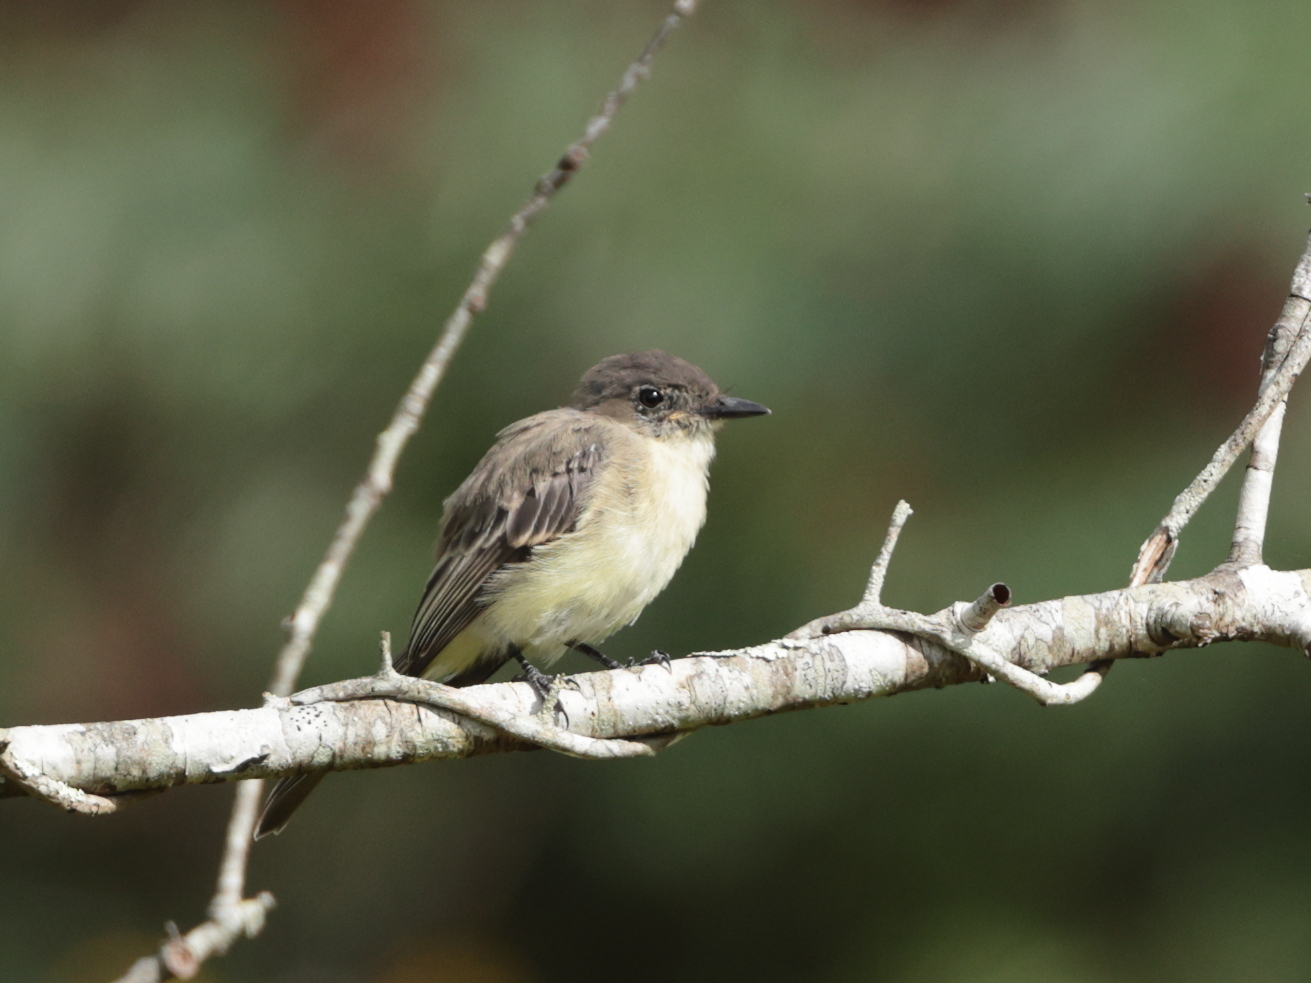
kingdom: Animalia
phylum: Chordata
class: Aves
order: Passeriformes
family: Tyrannidae
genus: Sayornis
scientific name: Sayornis phoebe
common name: Eastern phoebe
